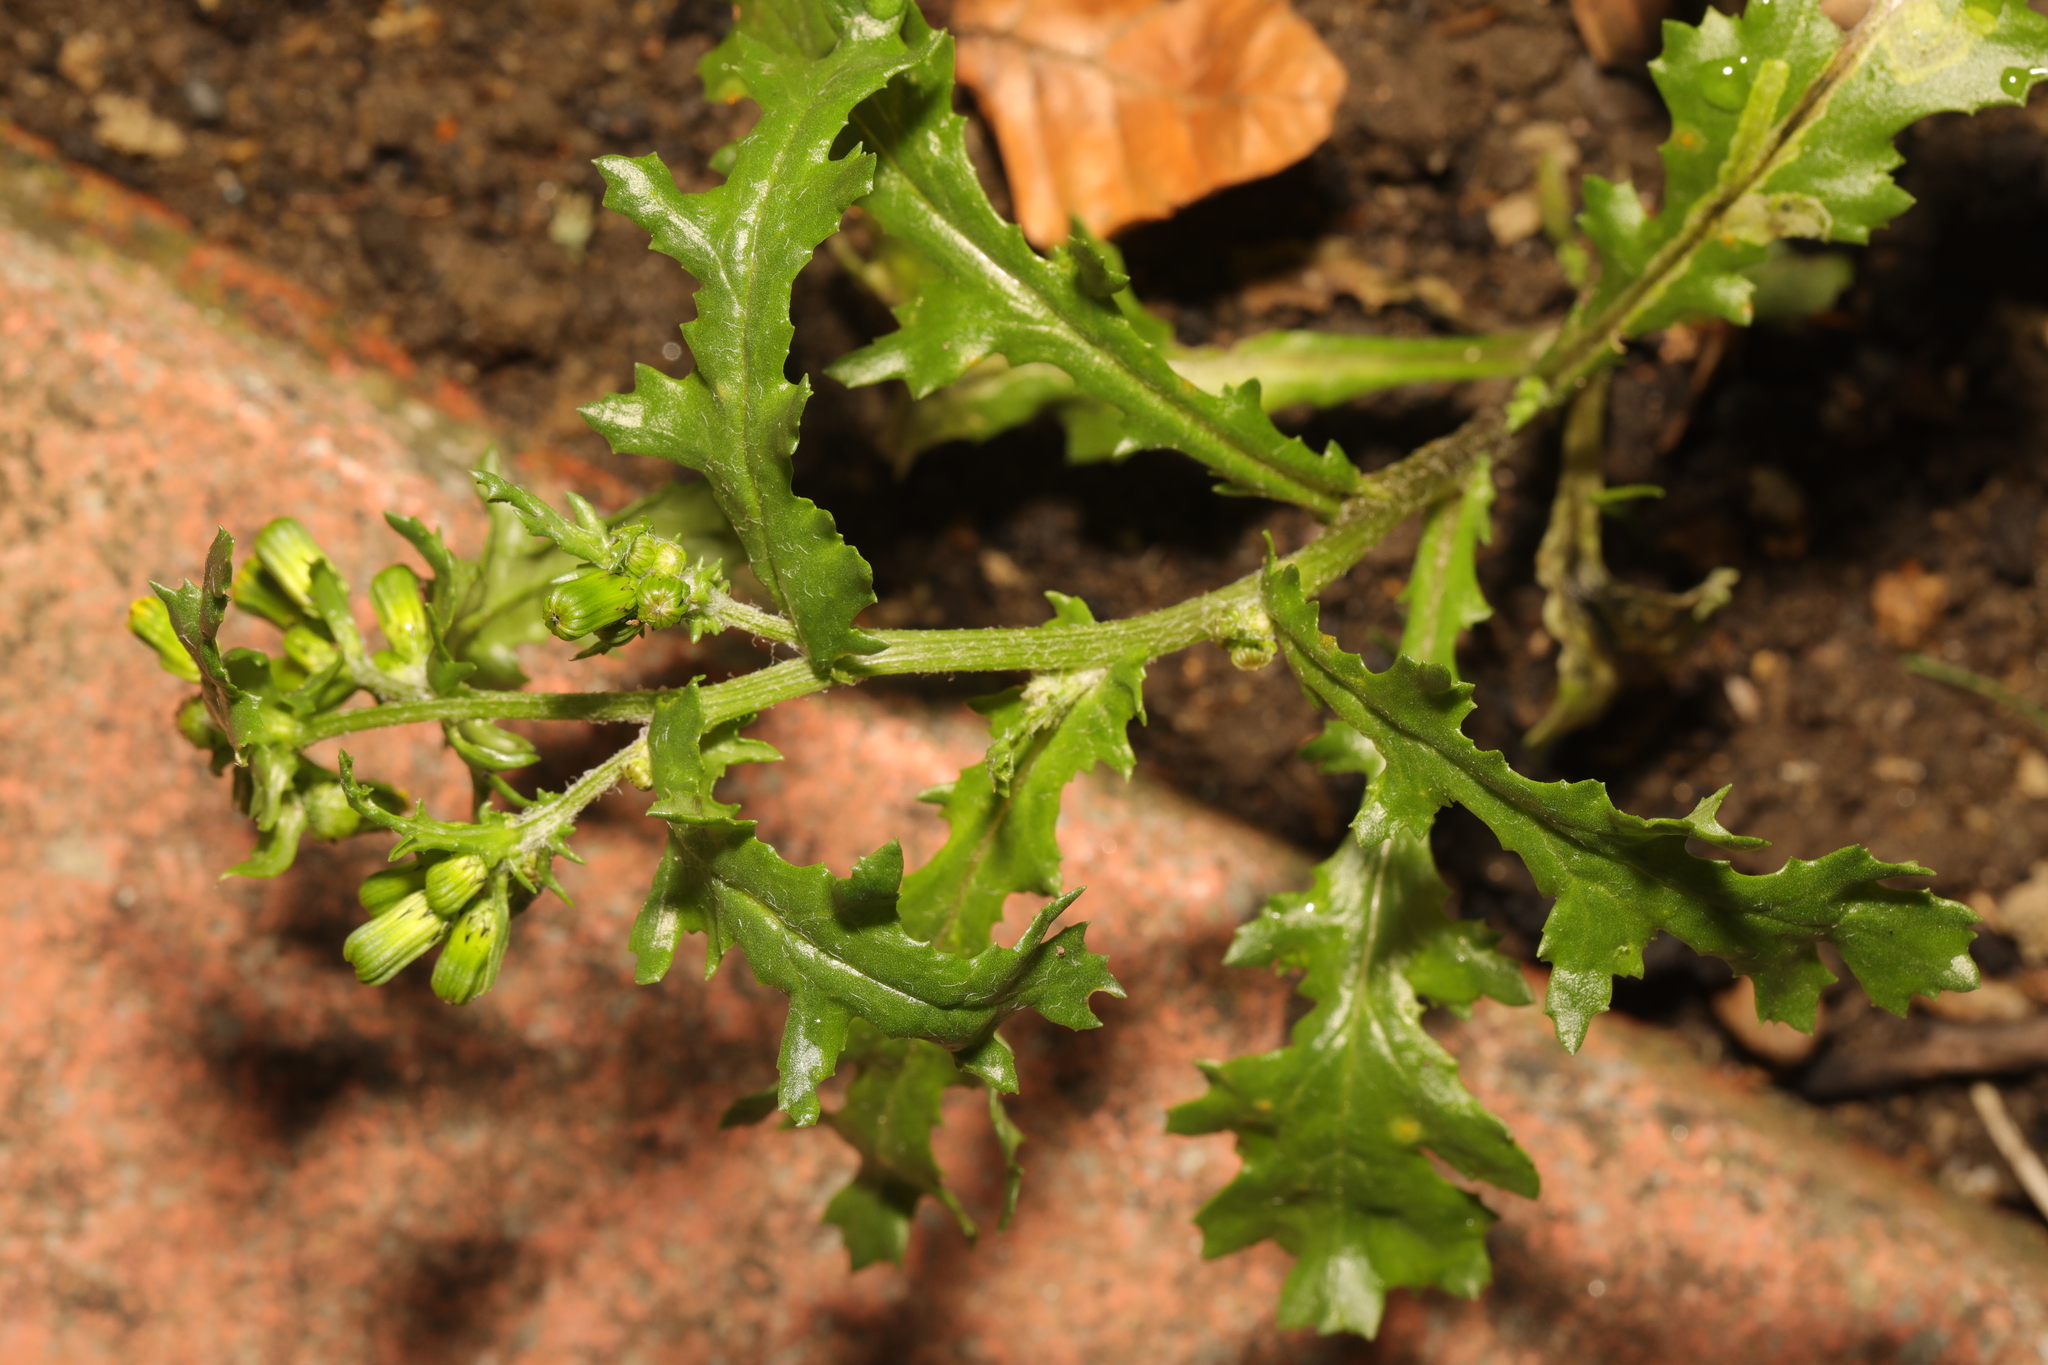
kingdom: Plantae
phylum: Tracheophyta
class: Magnoliopsida
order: Asterales
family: Asteraceae
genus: Senecio
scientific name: Senecio vulgaris
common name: Old-man-in-the-spring
